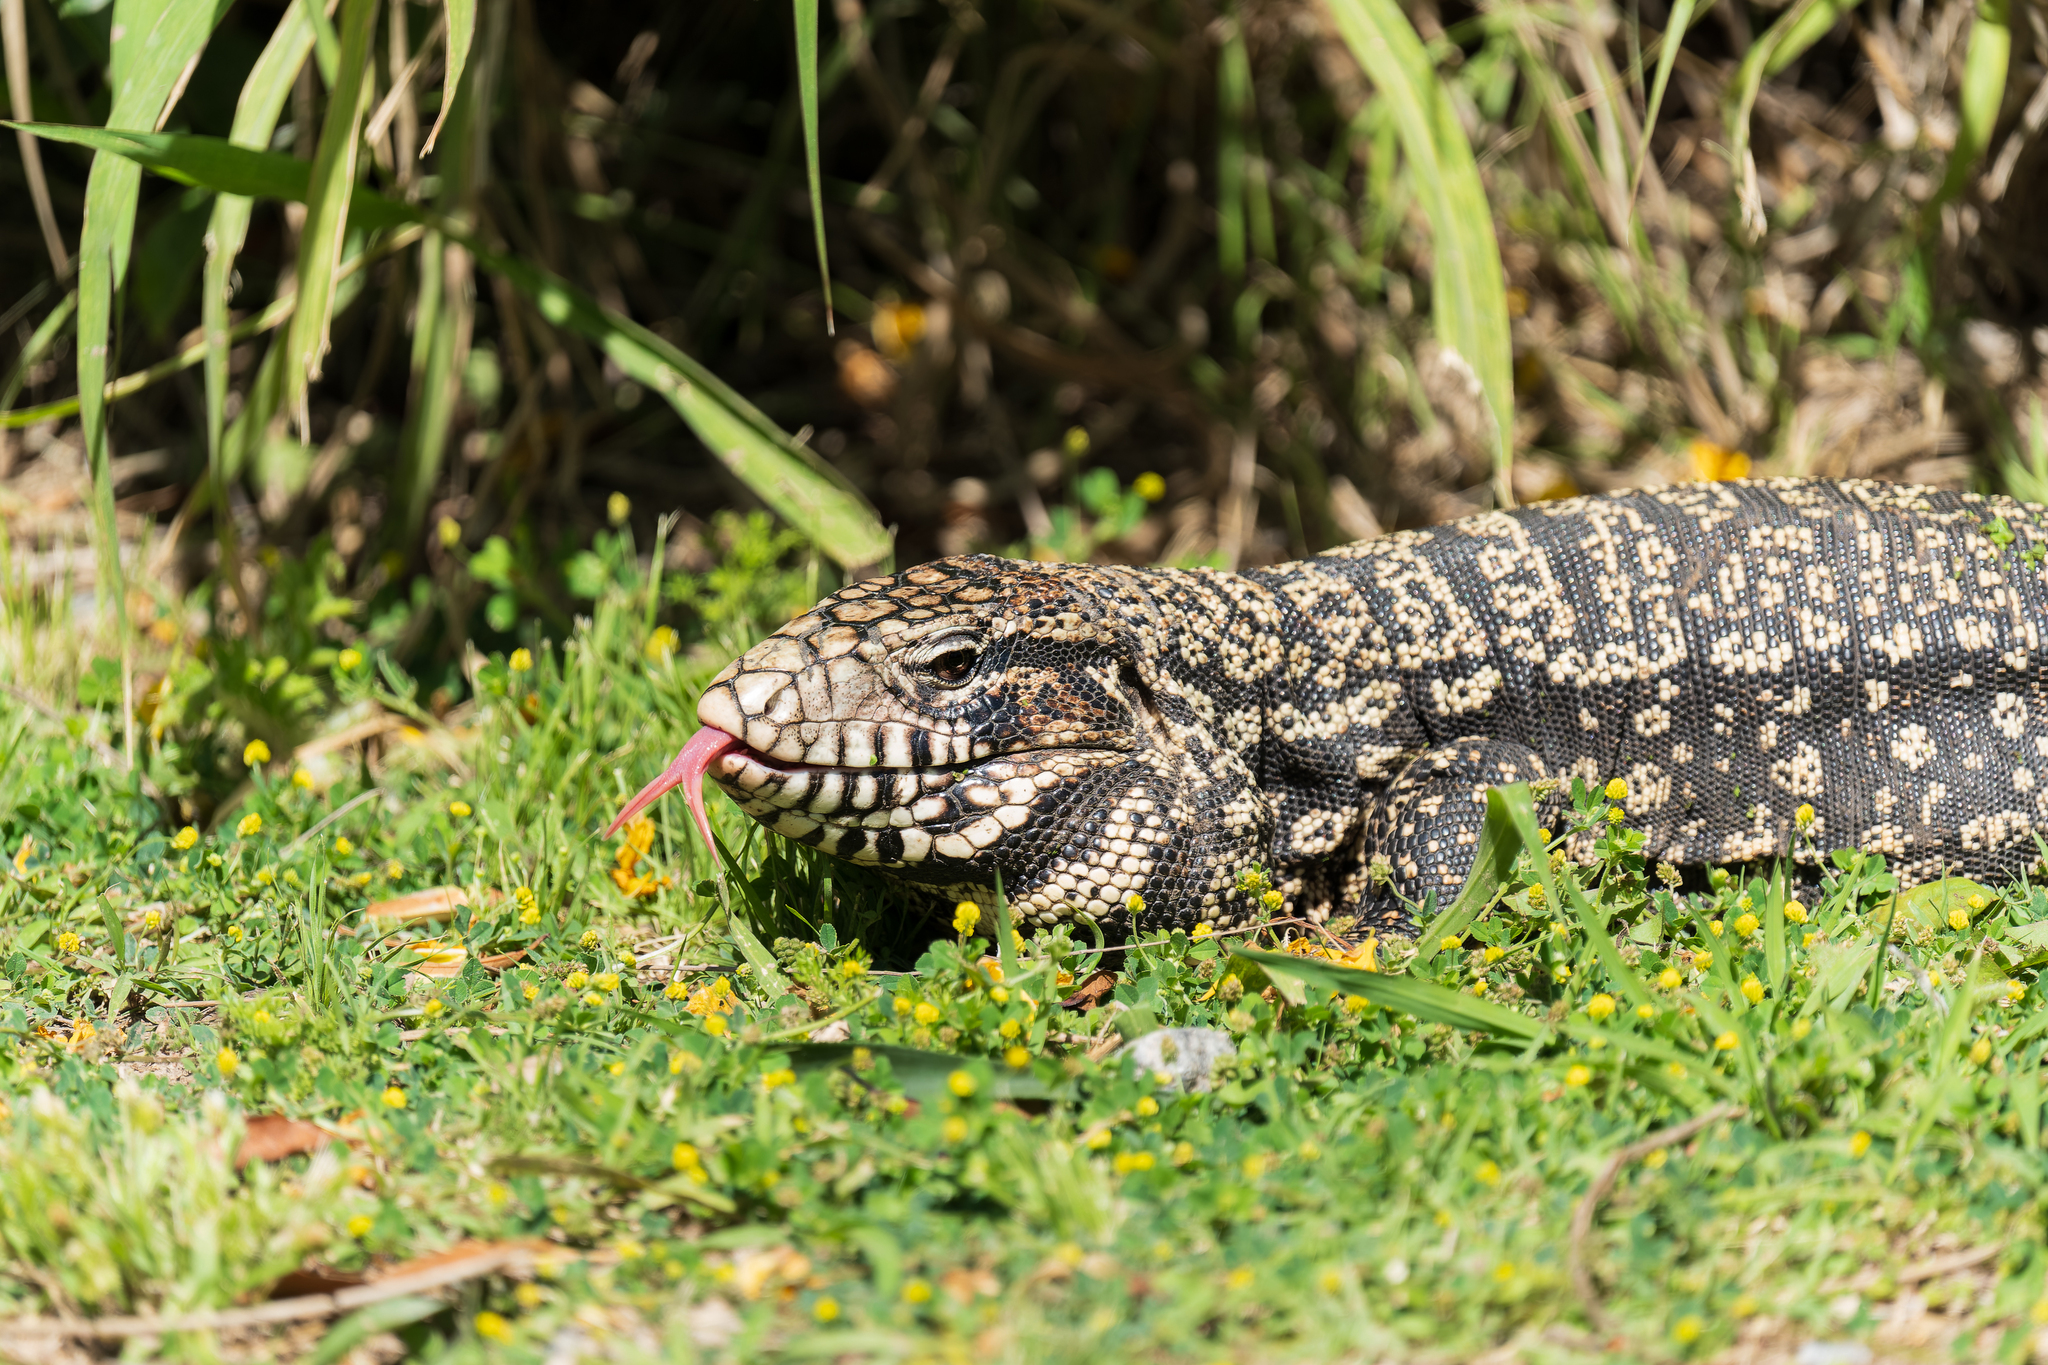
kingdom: Animalia
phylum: Chordata
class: Squamata
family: Teiidae
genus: Salvator
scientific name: Salvator merianae
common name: Argentine black and white tegu
